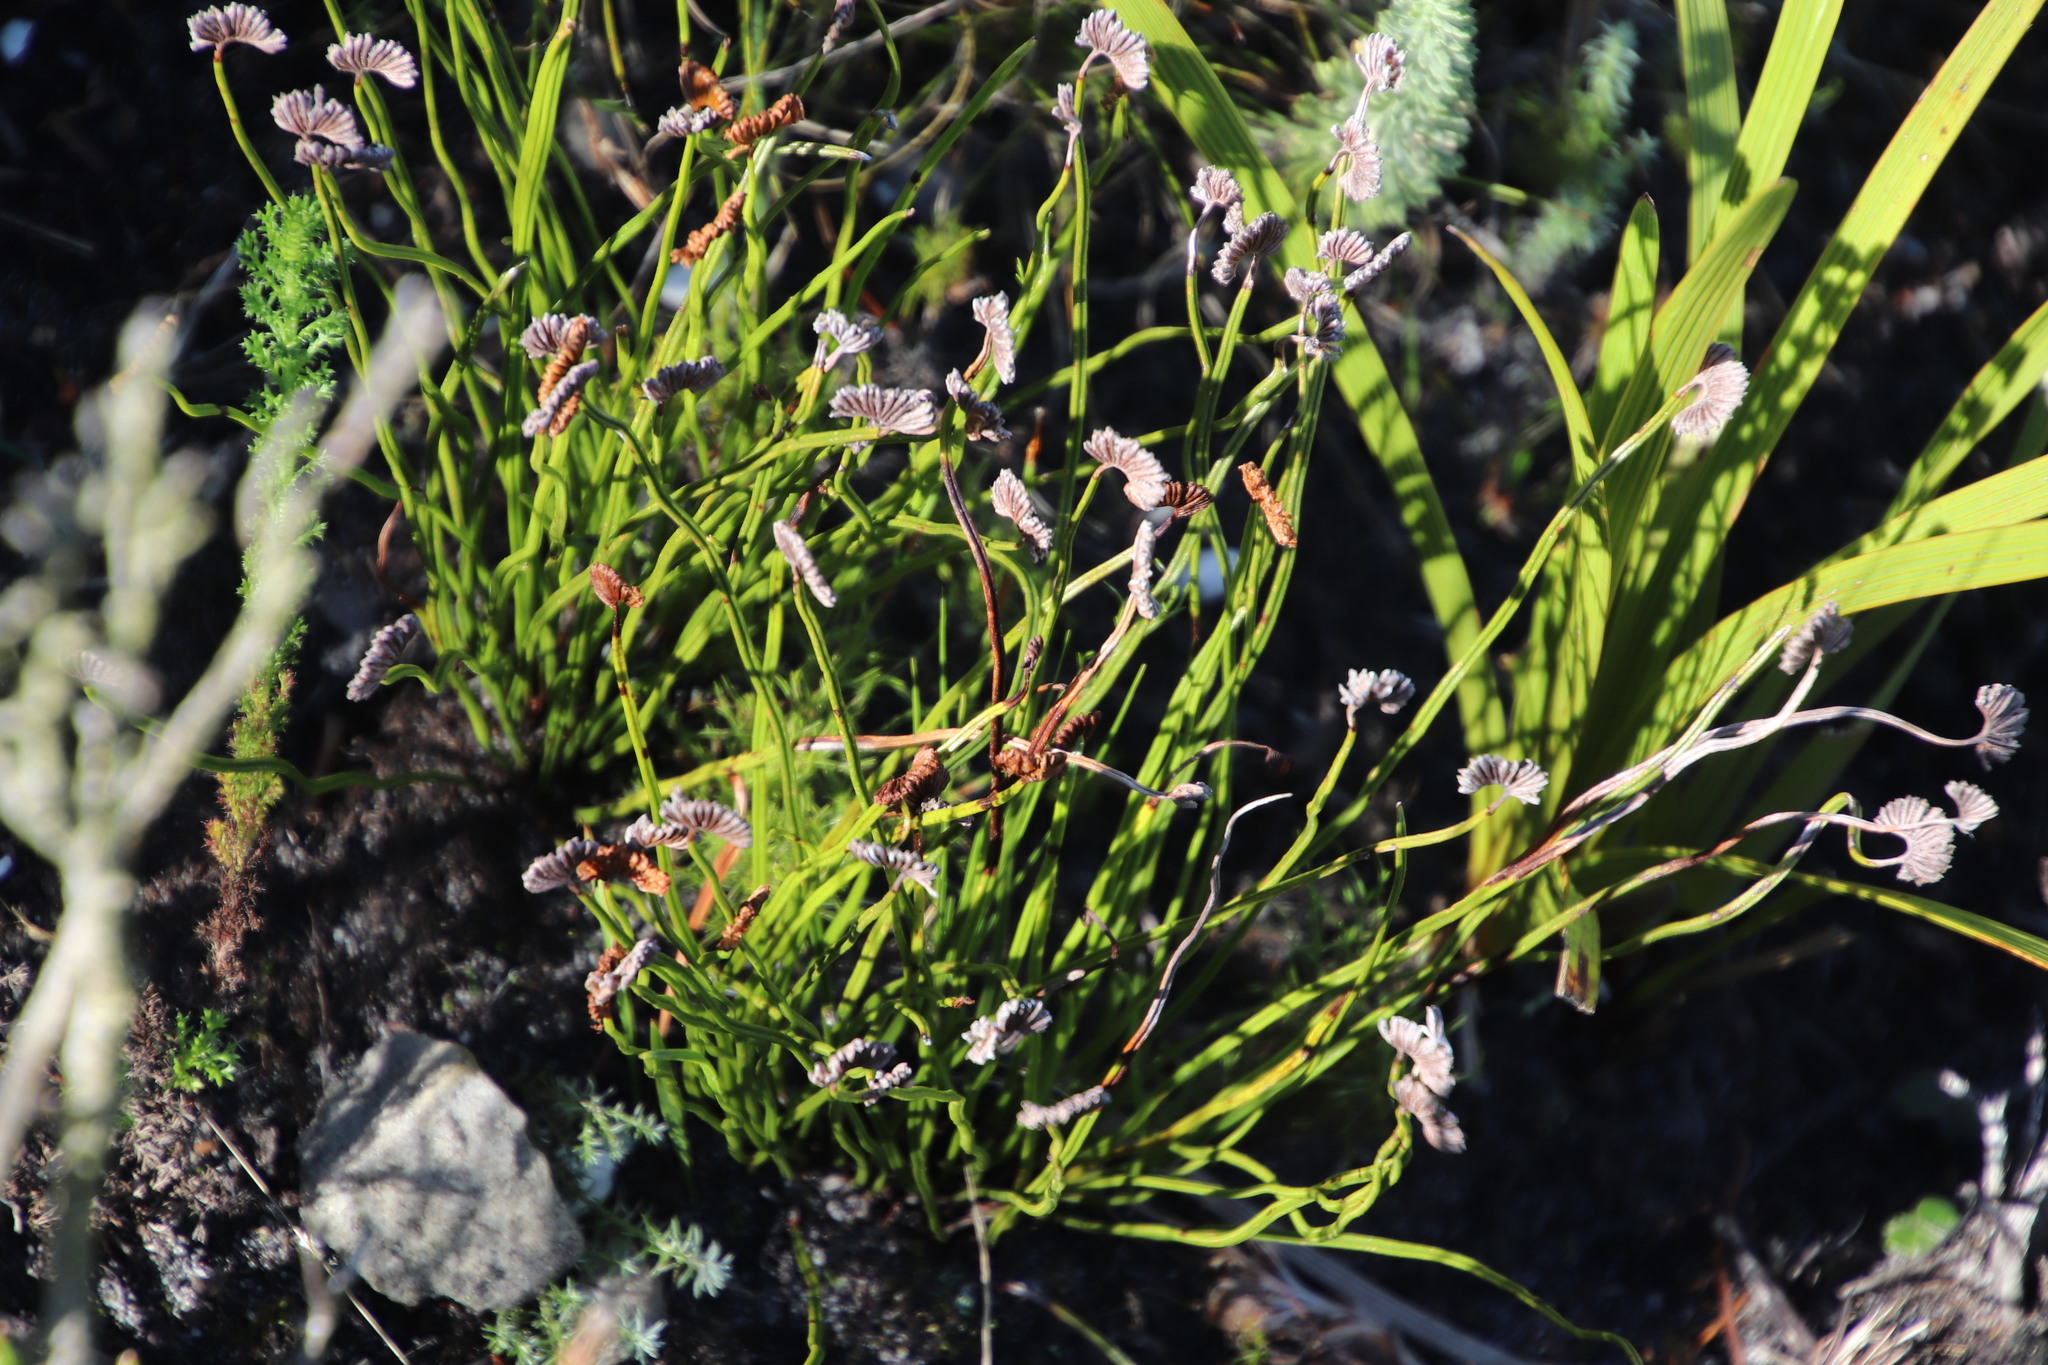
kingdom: Plantae
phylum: Tracheophyta
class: Polypodiopsida
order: Schizaeales
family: Schizaeaceae
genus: Schizaea
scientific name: Schizaea pectinata
